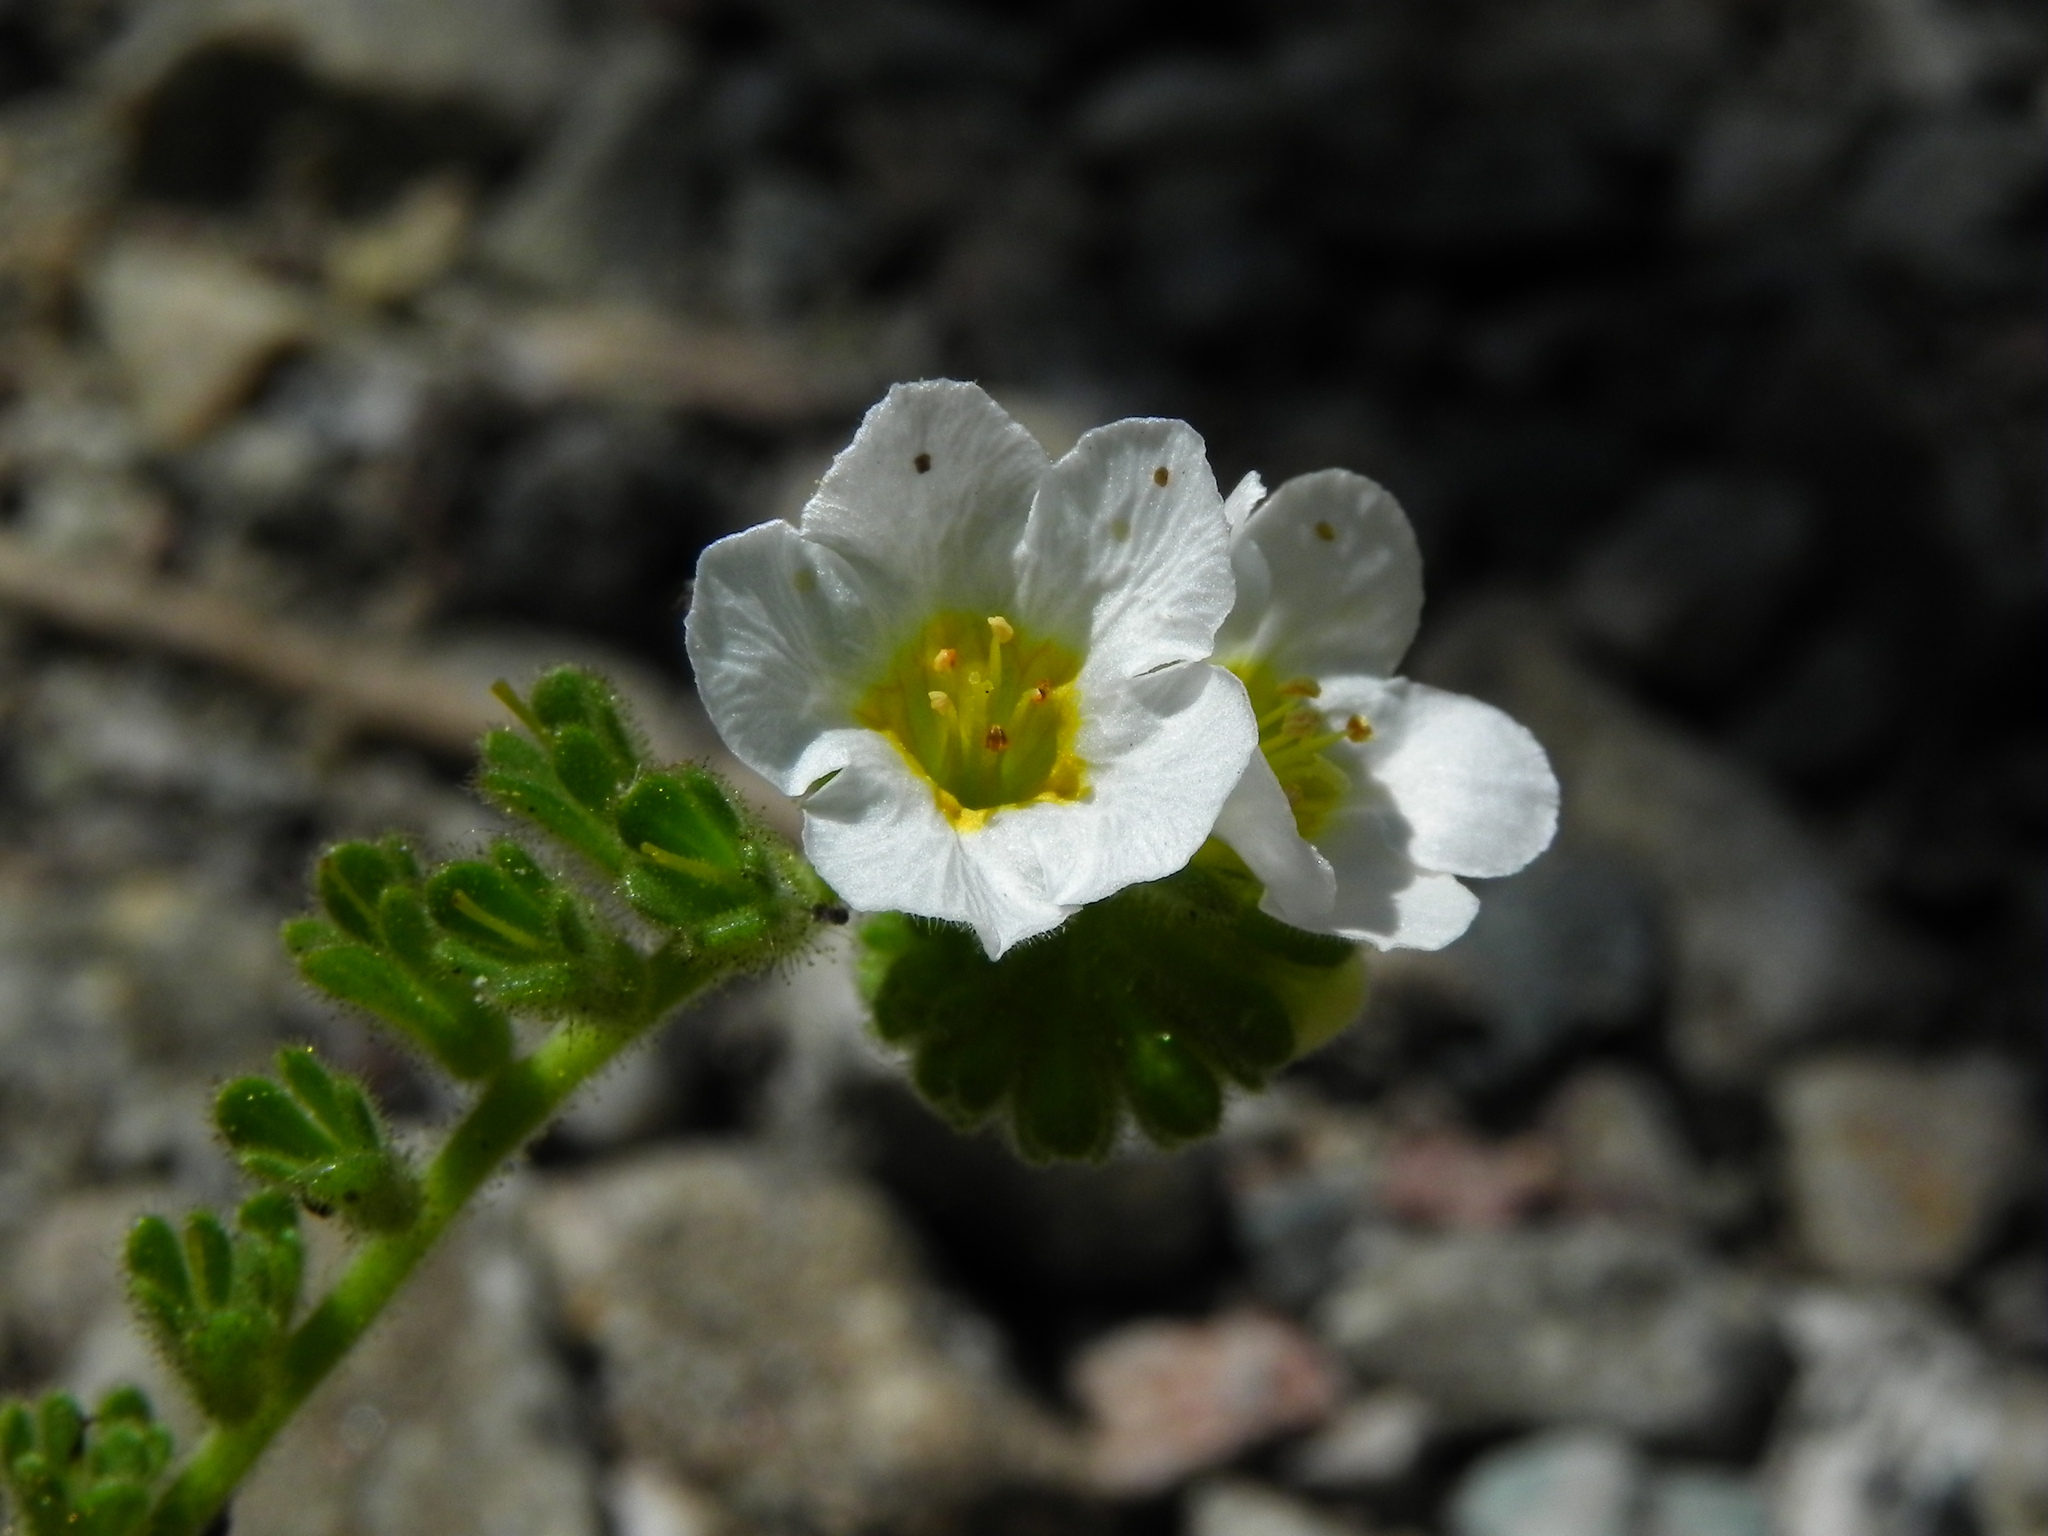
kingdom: Plantae
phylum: Tracheophyta
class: Magnoliopsida
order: Boraginales
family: Hydrophyllaceae
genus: Phacelia
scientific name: Phacelia brachyloba
